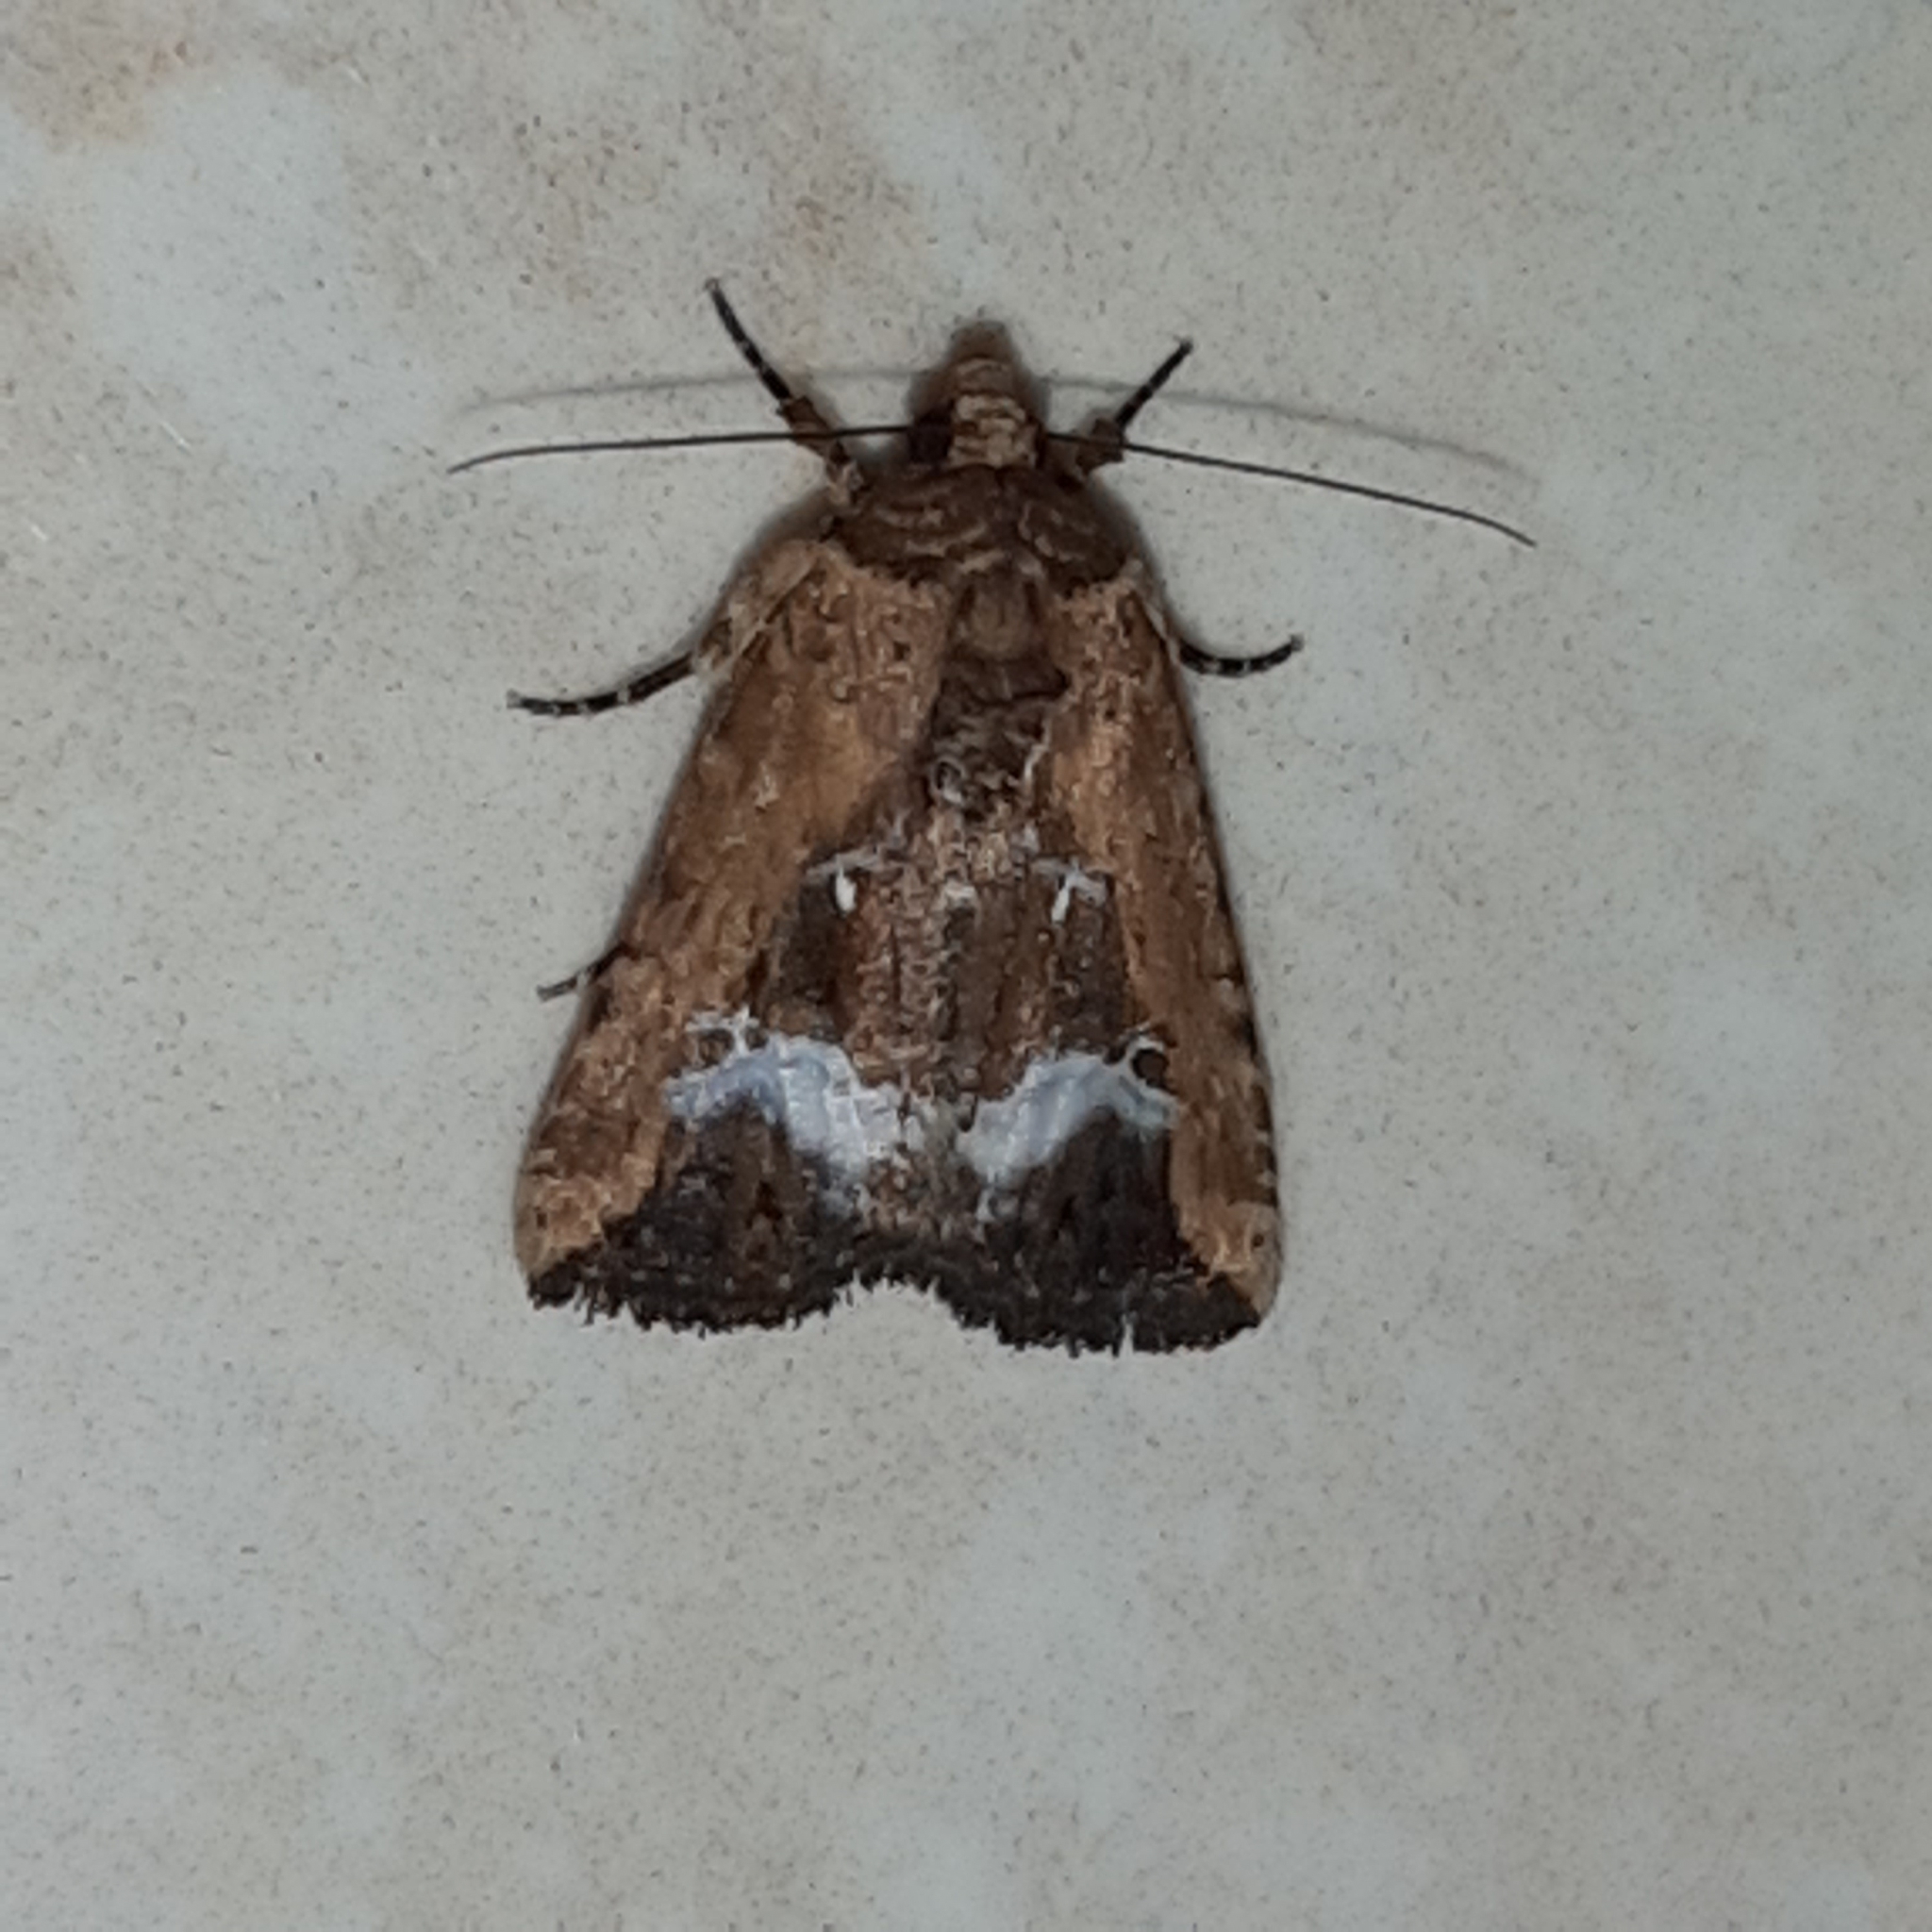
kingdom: Animalia
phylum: Arthropoda
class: Insecta
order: Lepidoptera
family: Noctuidae
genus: Elaphria
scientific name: Elaphria subobliqua
